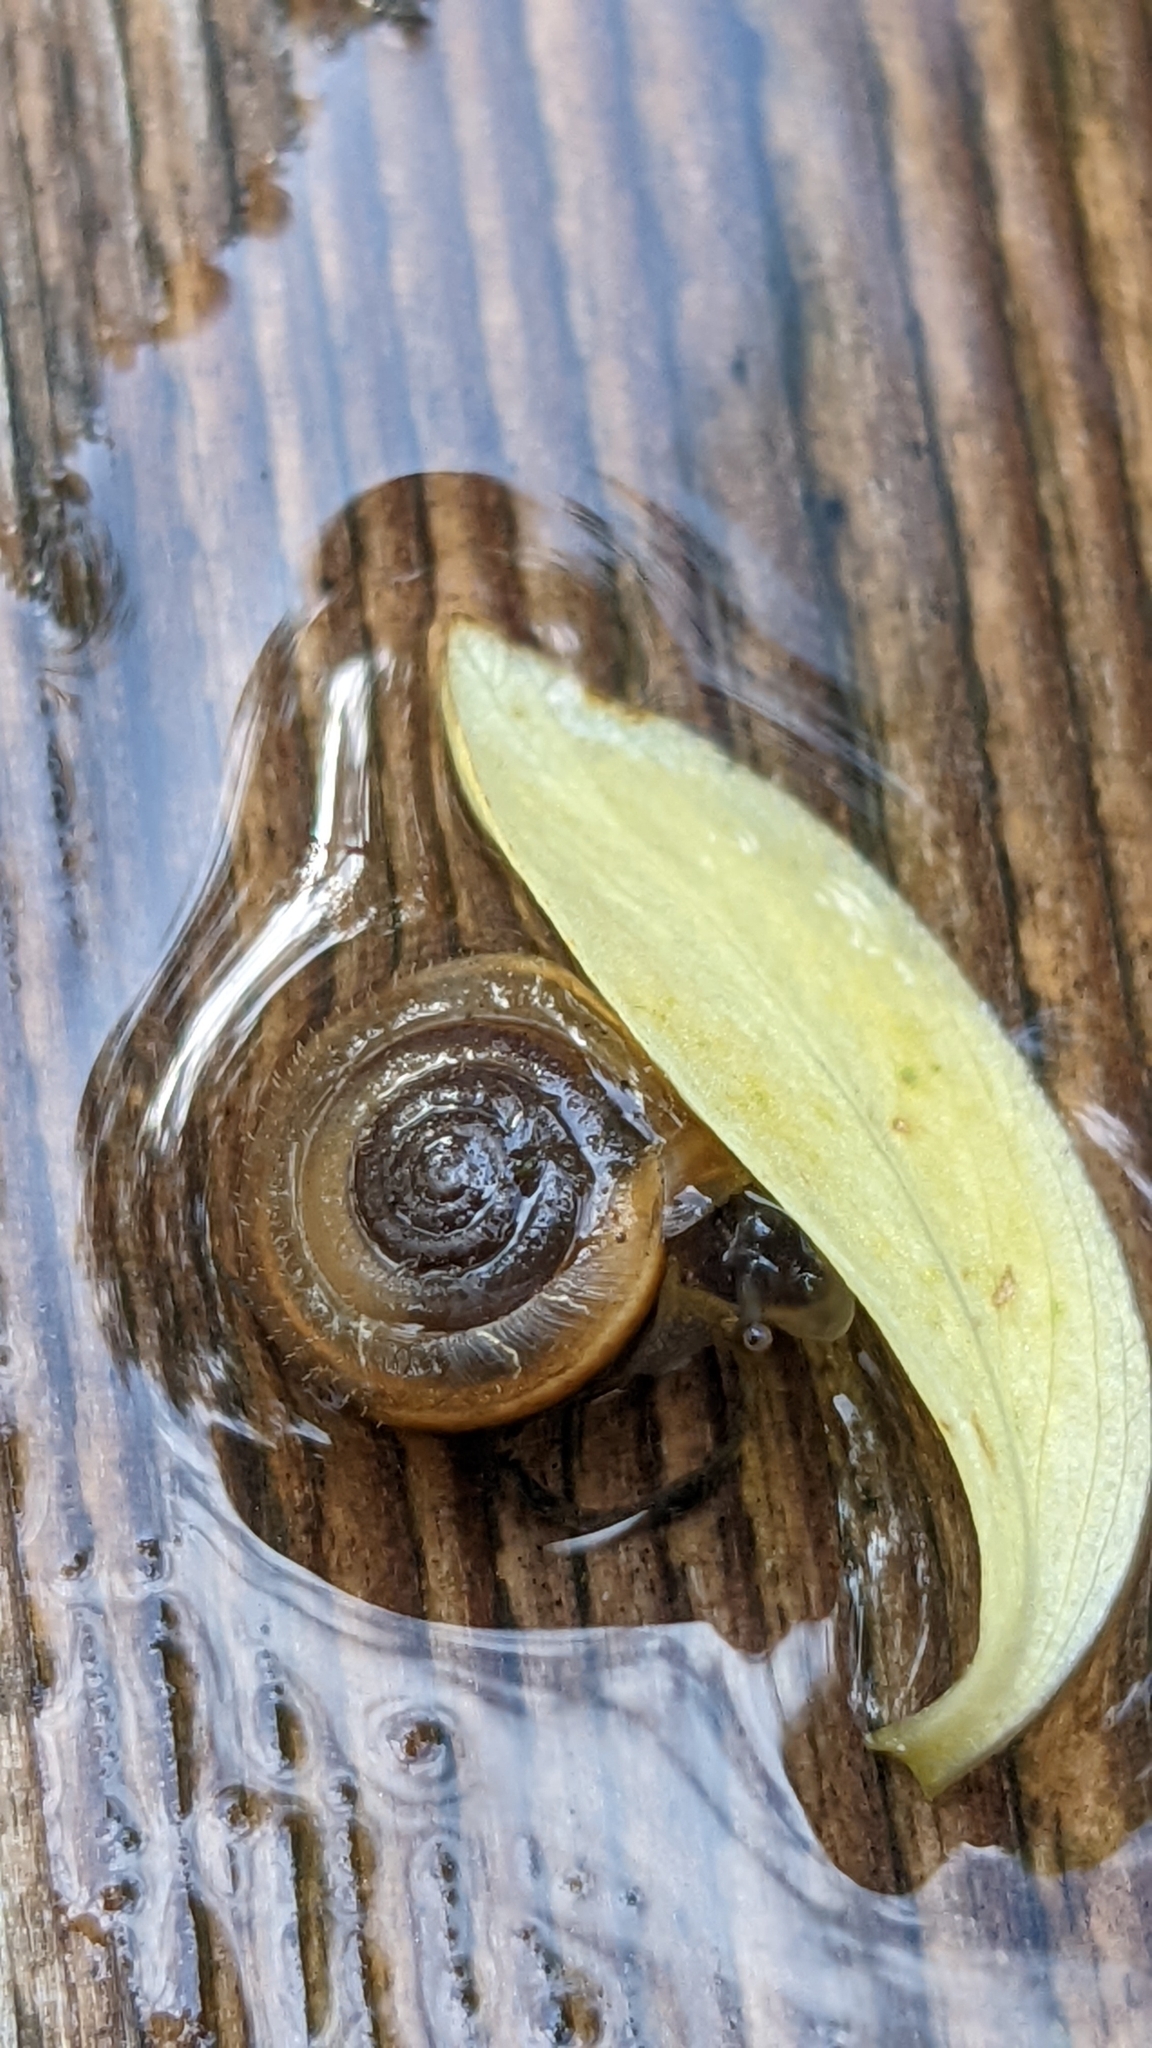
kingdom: Animalia
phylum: Mollusca
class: Gastropoda
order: Stylommatophora
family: Hygromiidae
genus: Trochulus
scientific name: Trochulus hispidus
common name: Hairy snail
